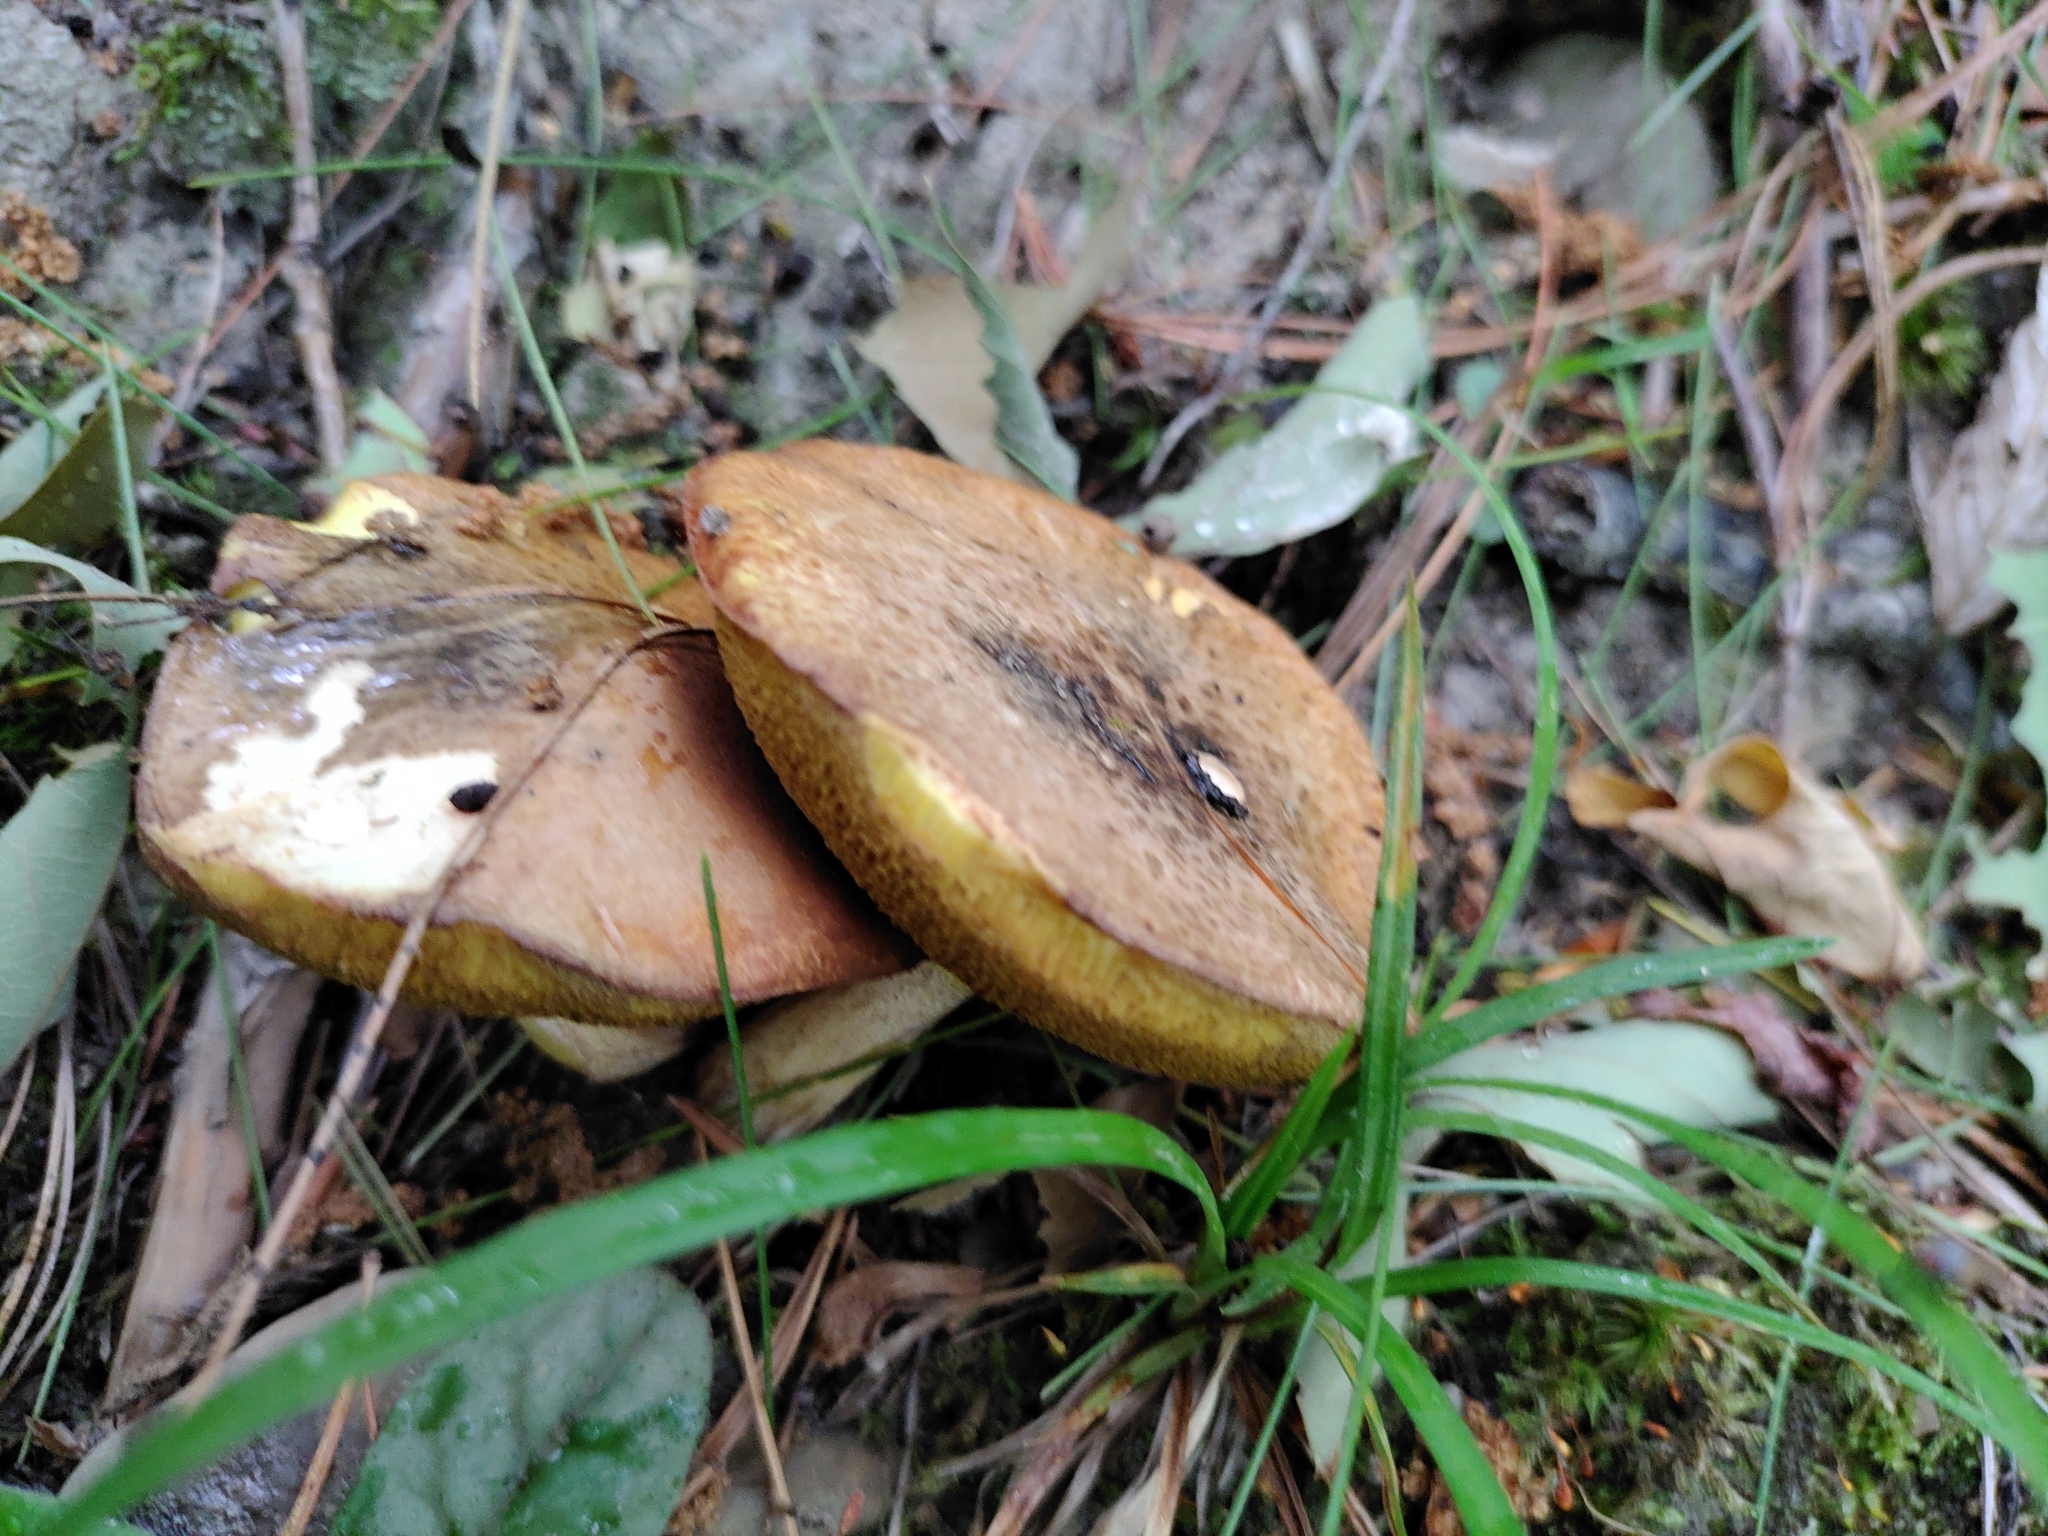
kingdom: Fungi
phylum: Basidiomycota
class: Agaricomycetes
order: Boletales
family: Suillaceae
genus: Fuscoboletinus
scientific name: Fuscoboletinus weaverae
